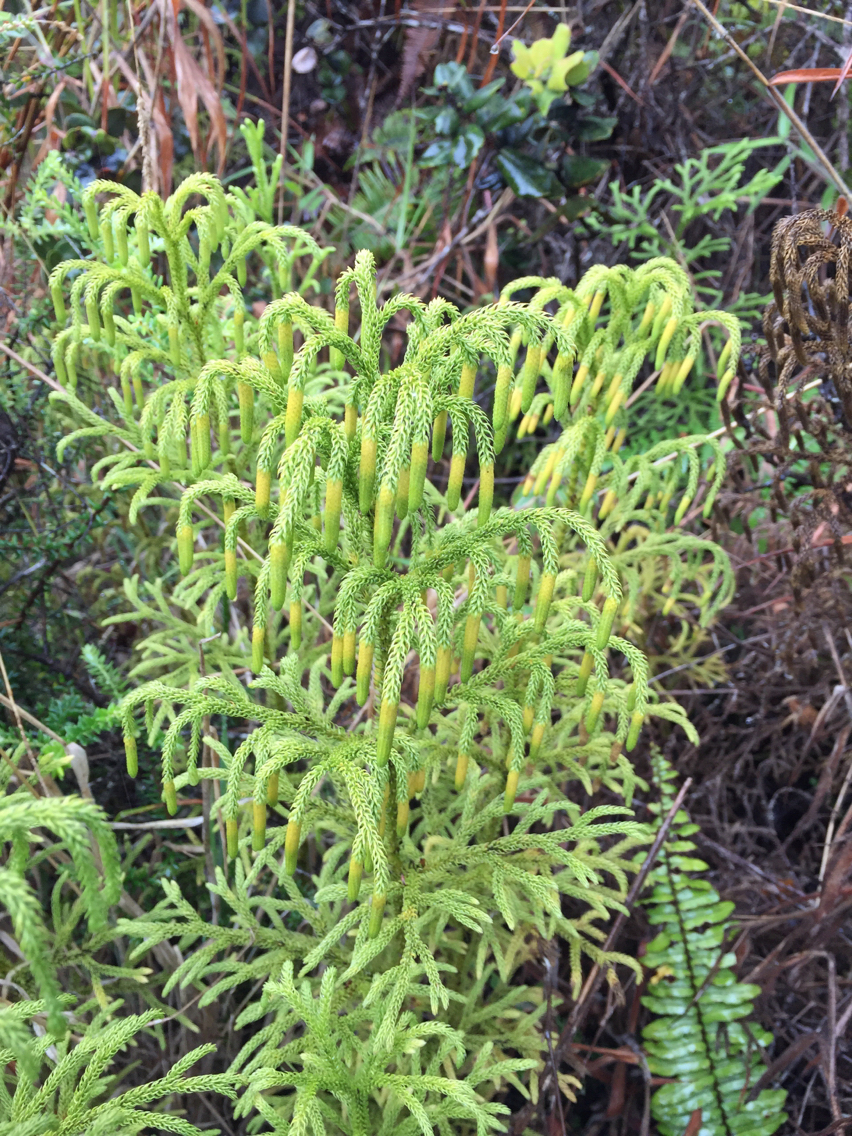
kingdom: Plantae
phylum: Tracheophyta
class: Lycopodiopsida
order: Lycopodiales
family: Lycopodiaceae
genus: Palhinhaea
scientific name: Palhinhaea cernua
